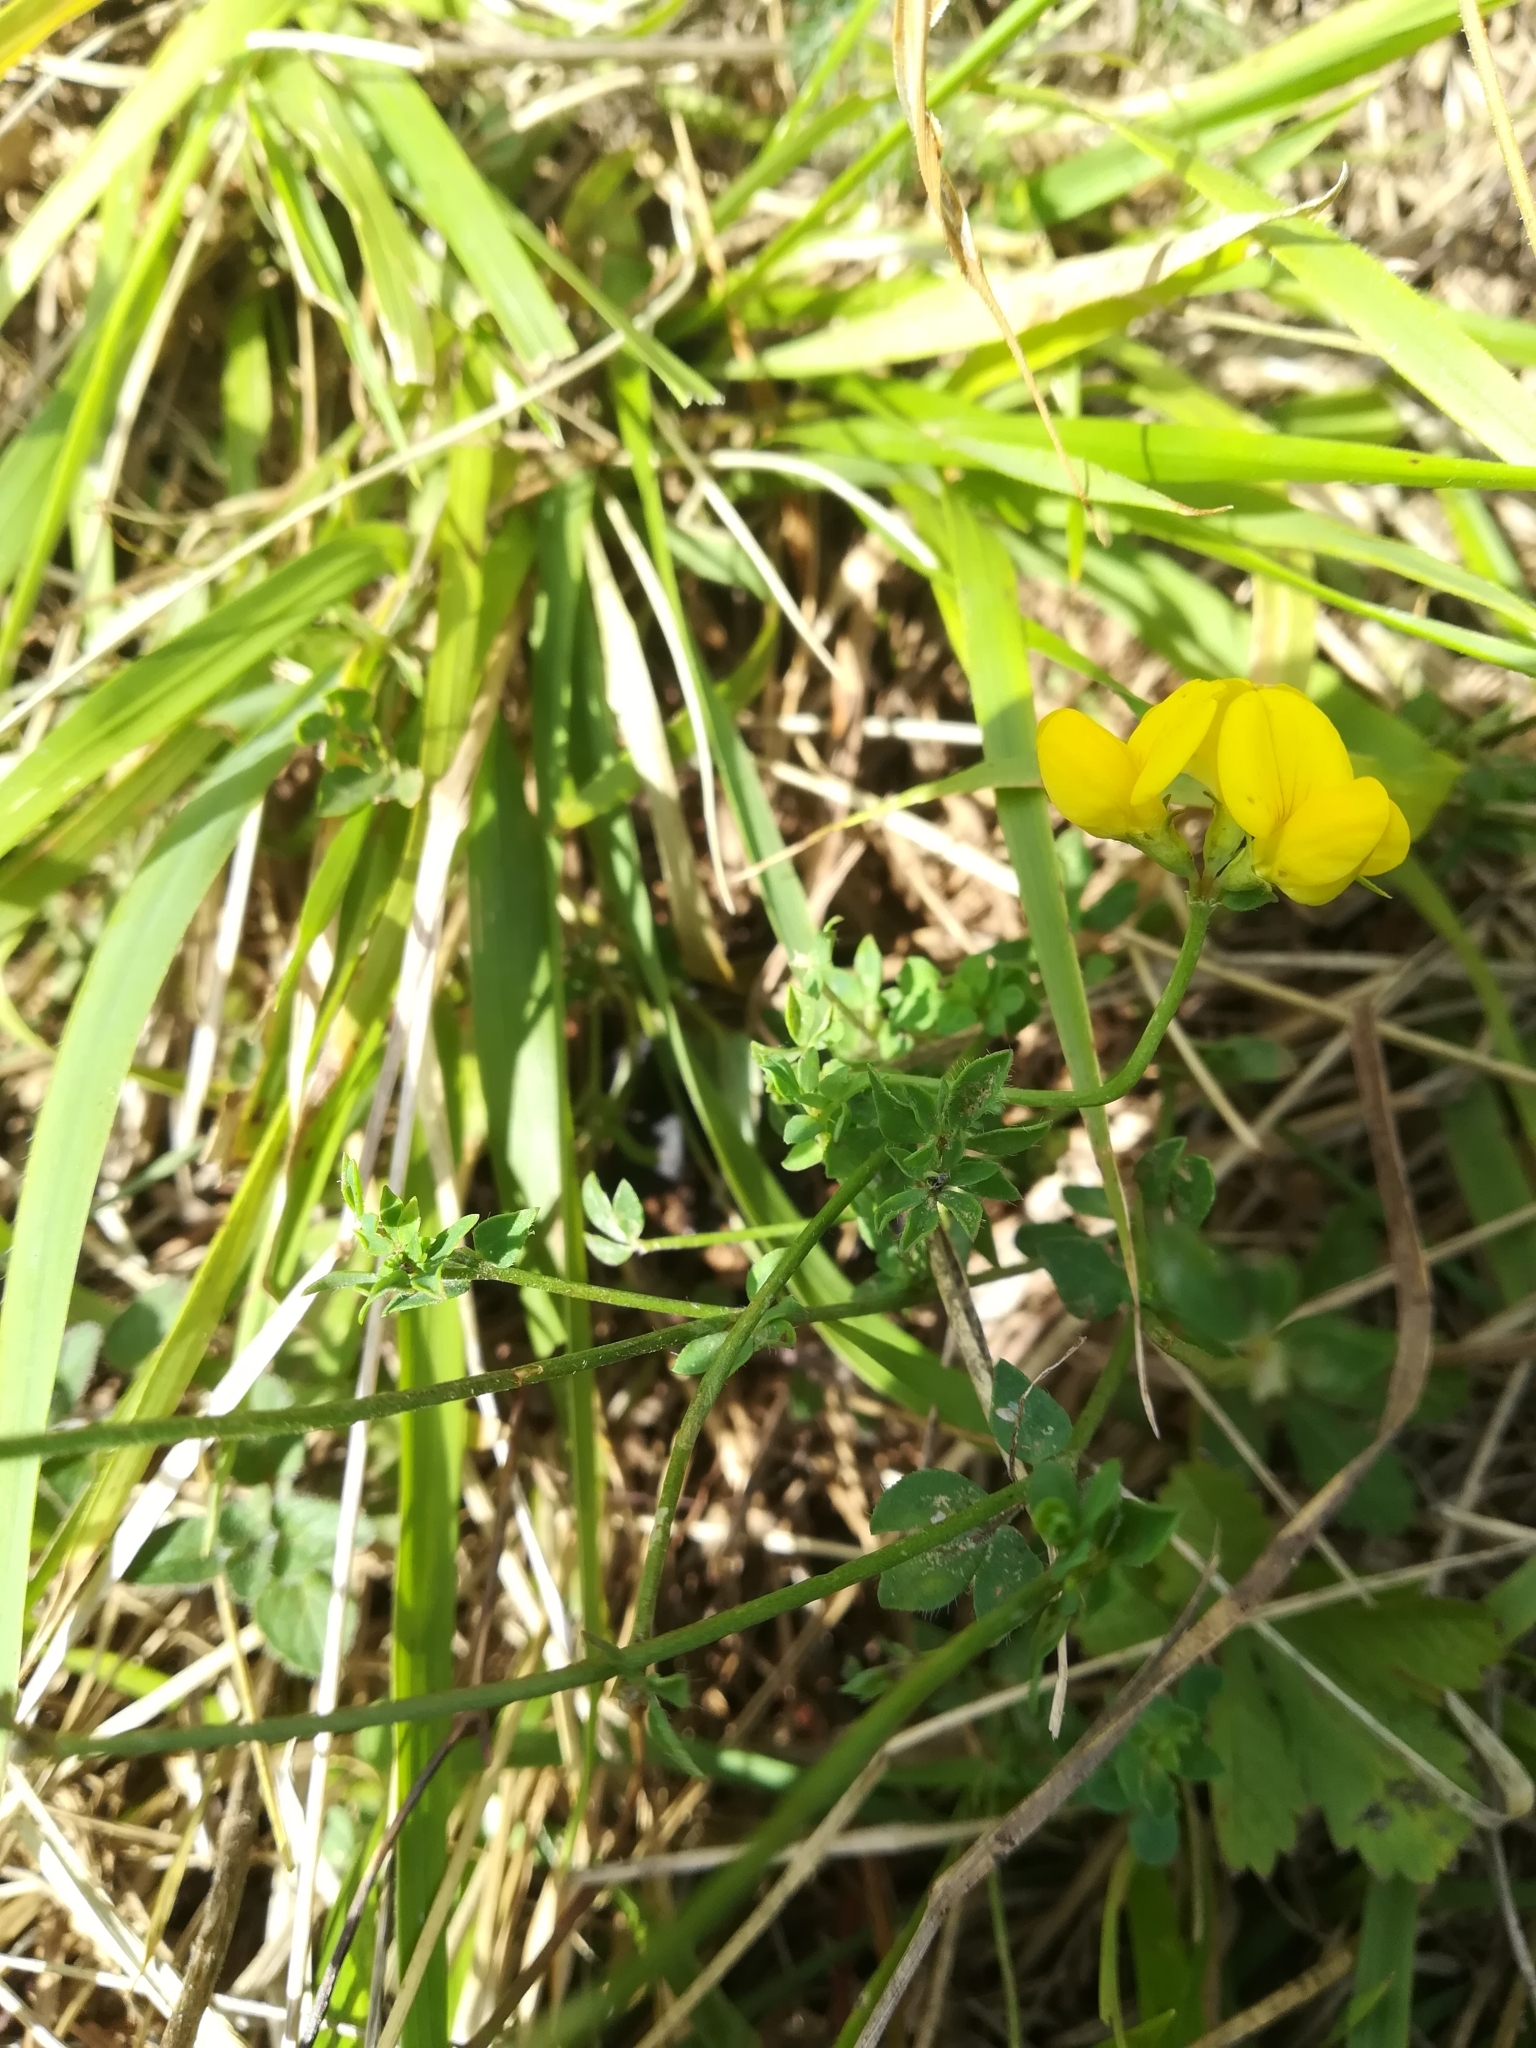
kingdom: Plantae
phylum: Tracheophyta
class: Magnoliopsida
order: Fabales
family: Fabaceae
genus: Lotus
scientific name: Lotus corniculatus
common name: Common bird's-foot-trefoil
